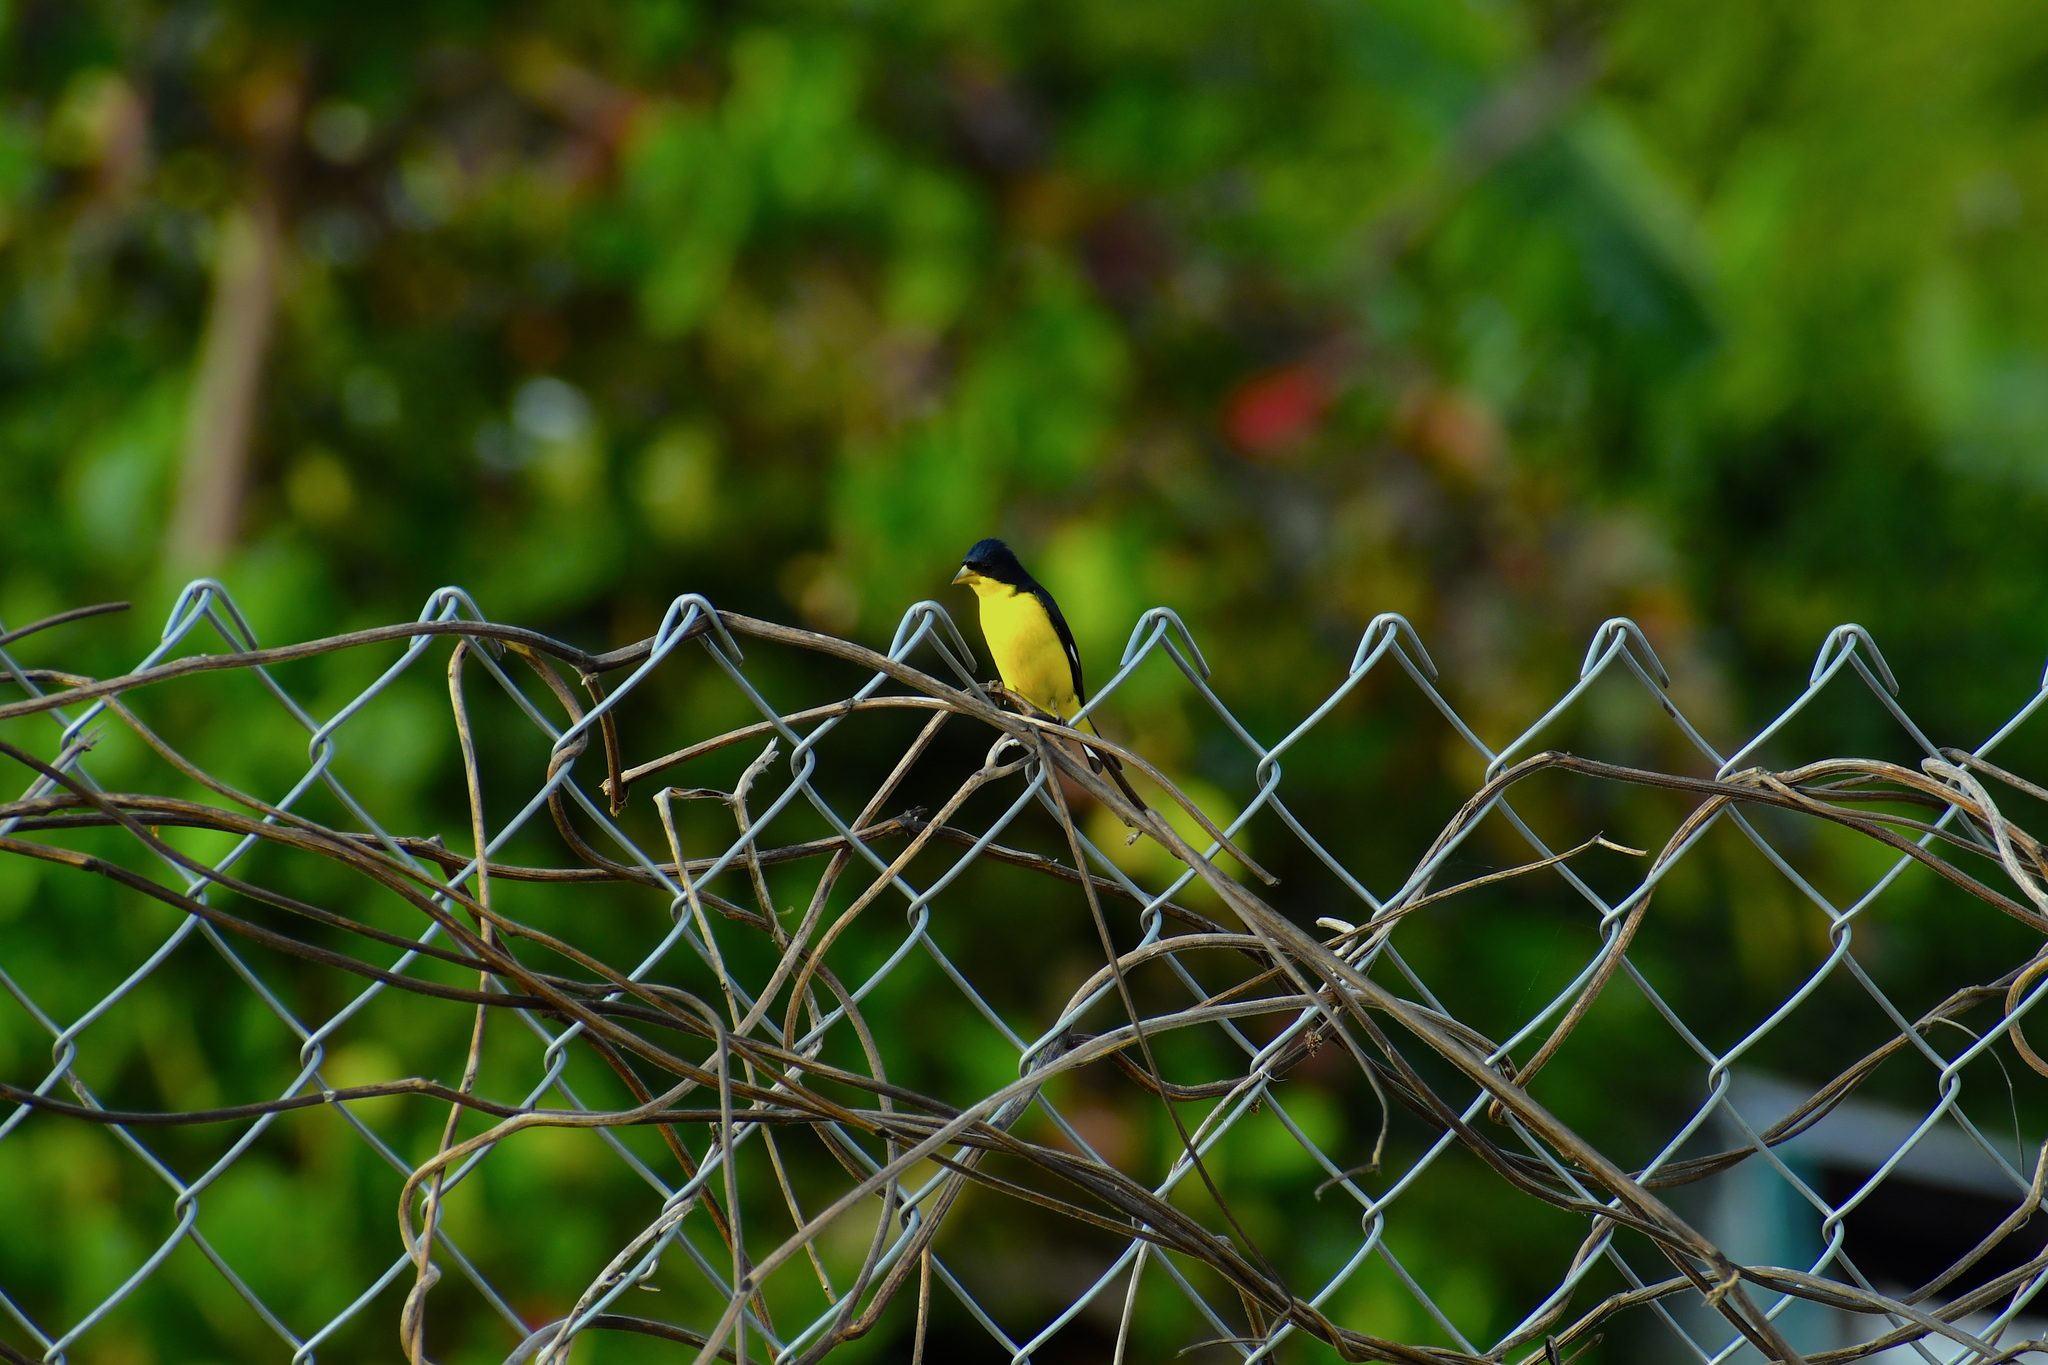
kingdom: Animalia
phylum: Chordata
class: Aves
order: Passeriformes
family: Fringillidae
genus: Spinus
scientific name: Spinus psaltria
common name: Lesser goldfinch
